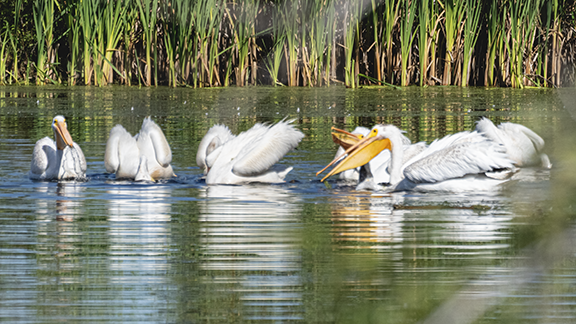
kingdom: Animalia
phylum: Chordata
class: Aves
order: Pelecaniformes
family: Pelecanidae
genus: Pelecanus
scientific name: Pelecanus erythrorhynchos
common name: American white pelican
